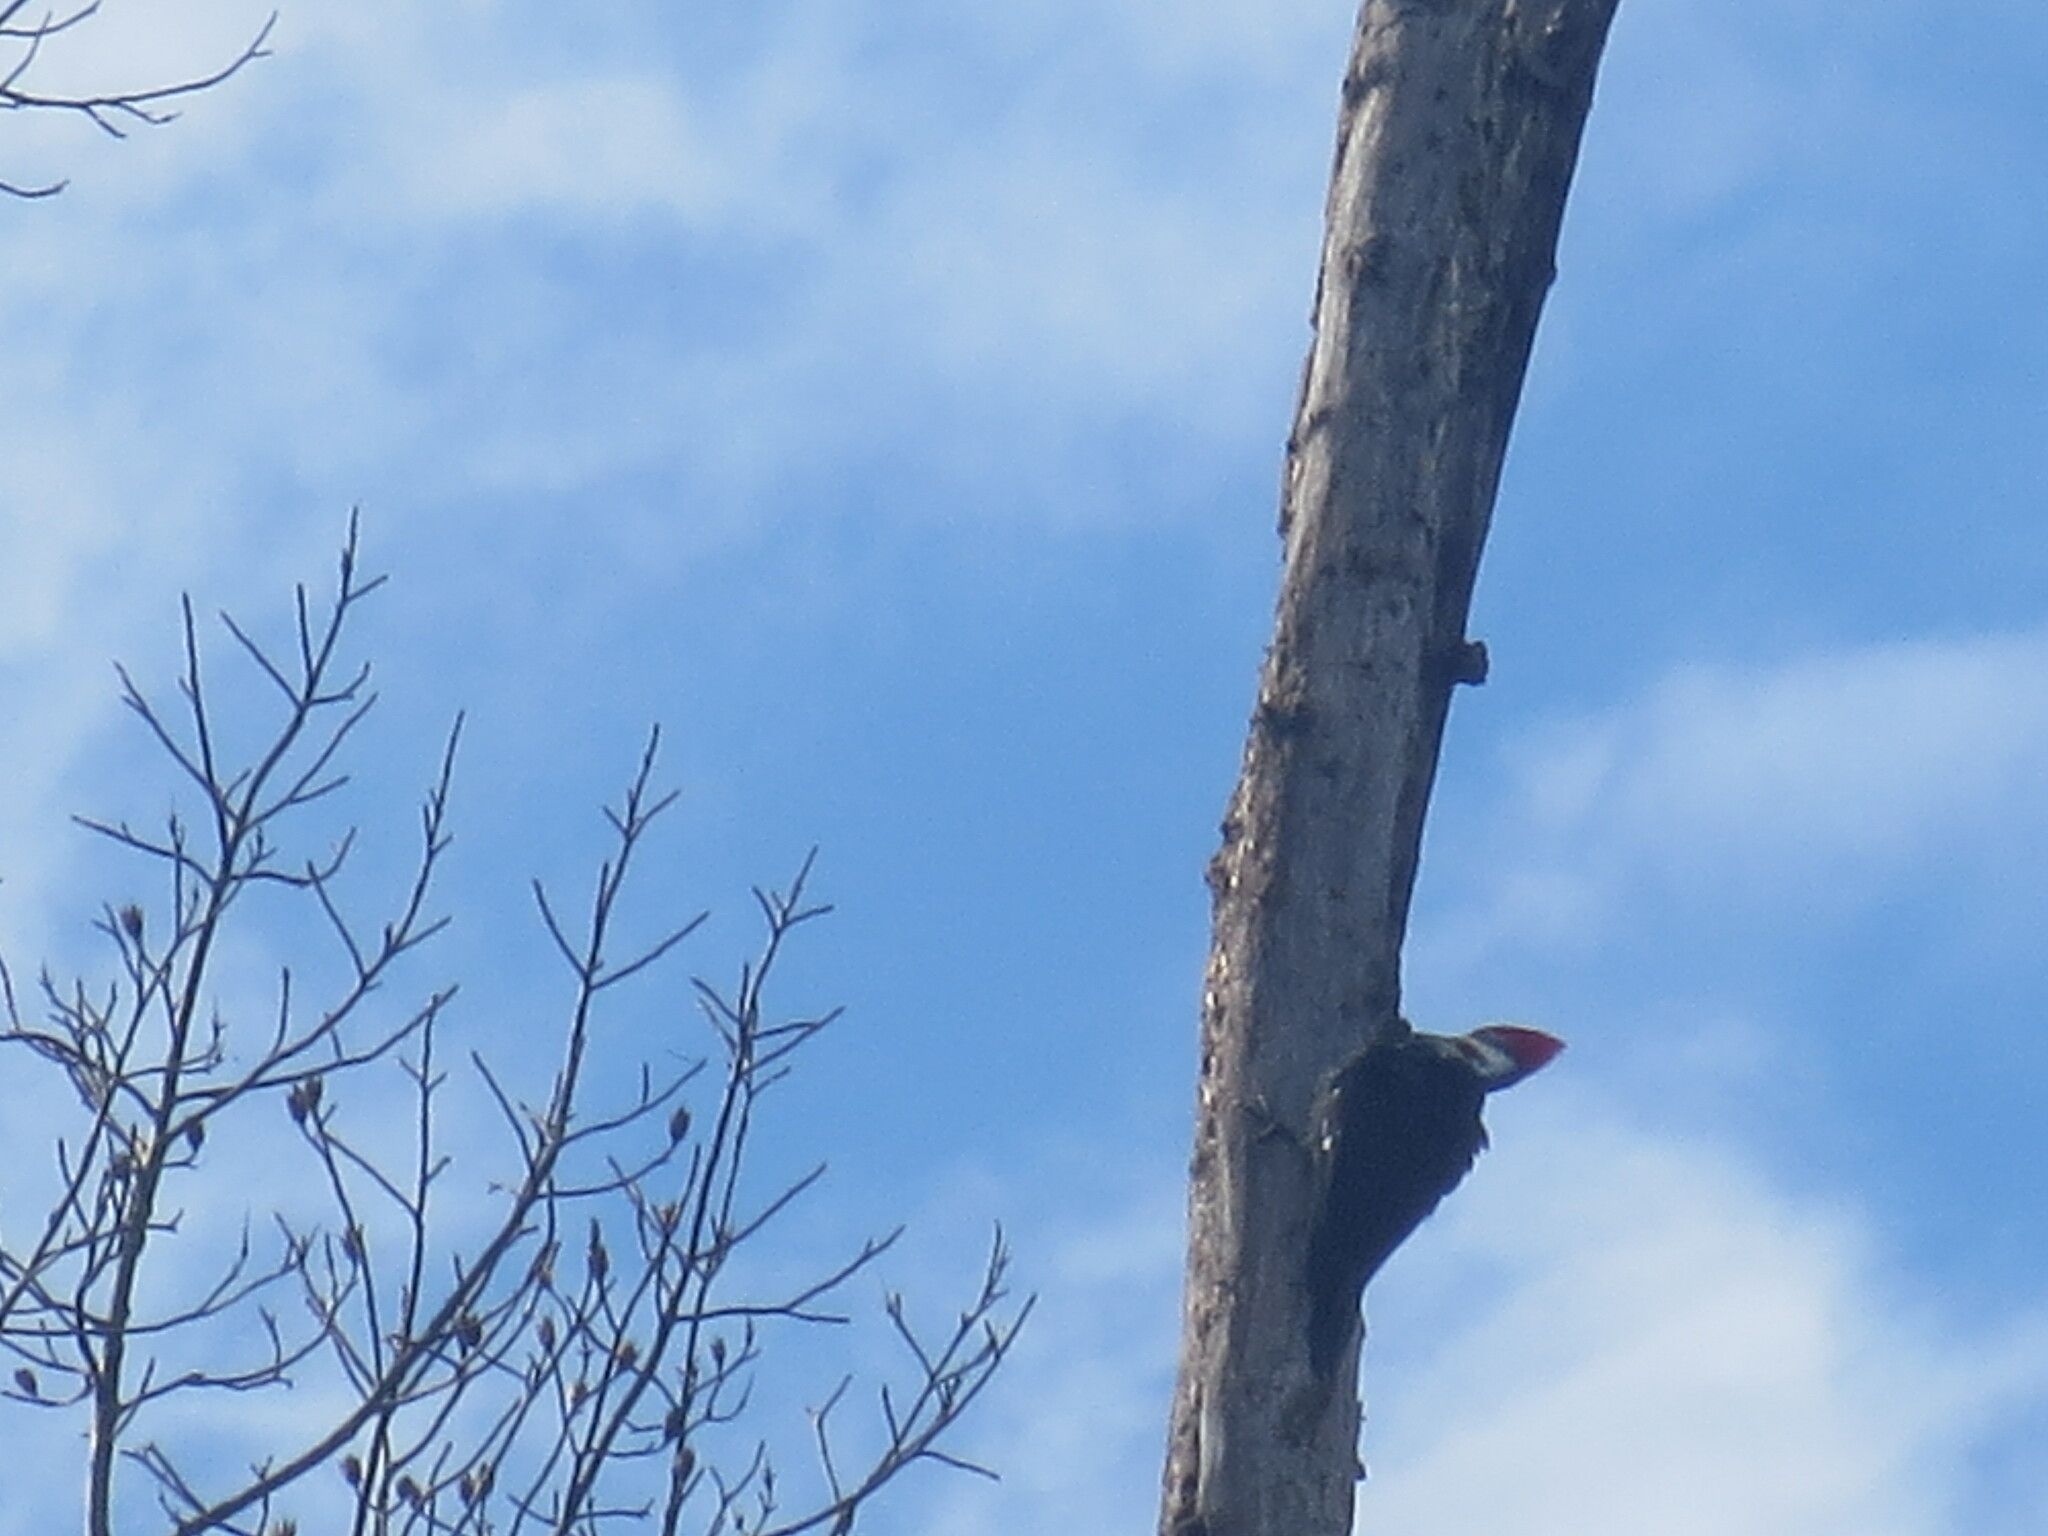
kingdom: Animalia
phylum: Chordata
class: Aves
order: Piciformes
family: Picidae
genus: Dryocopus
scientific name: Dryocopus pileatus
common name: Pileated woodpecker
